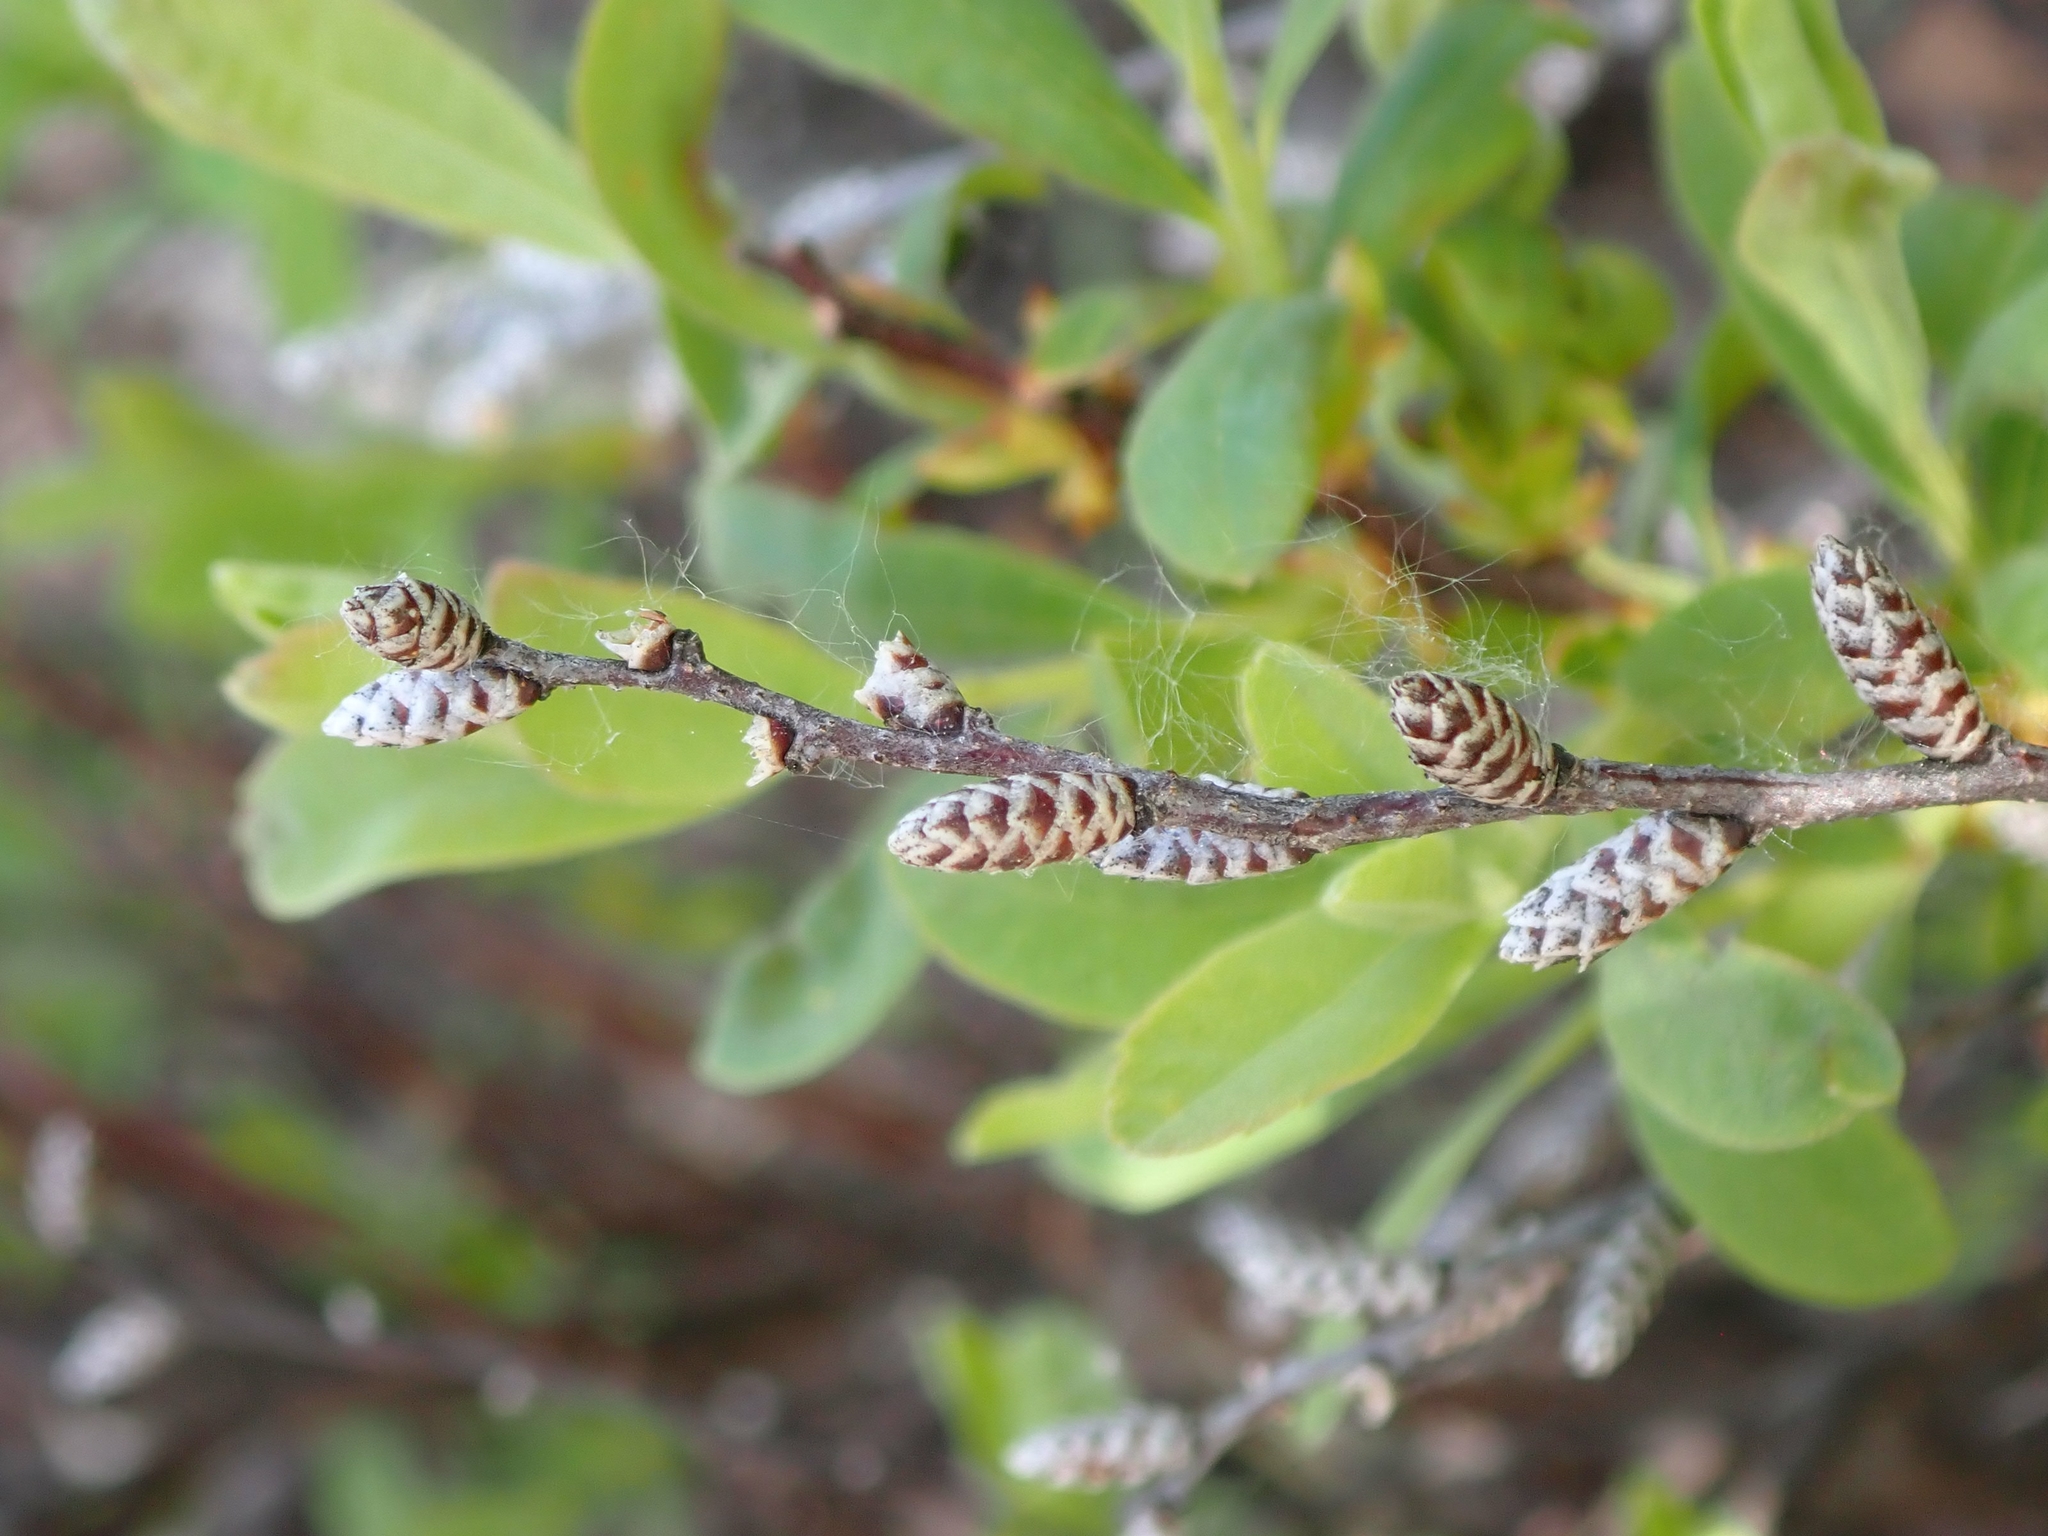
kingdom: Plantae
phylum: Tracheophyta
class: Magnoliopsida
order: Fagales
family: Myricaceae
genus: Myrica
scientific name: Myrica gale
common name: Sweet gale
